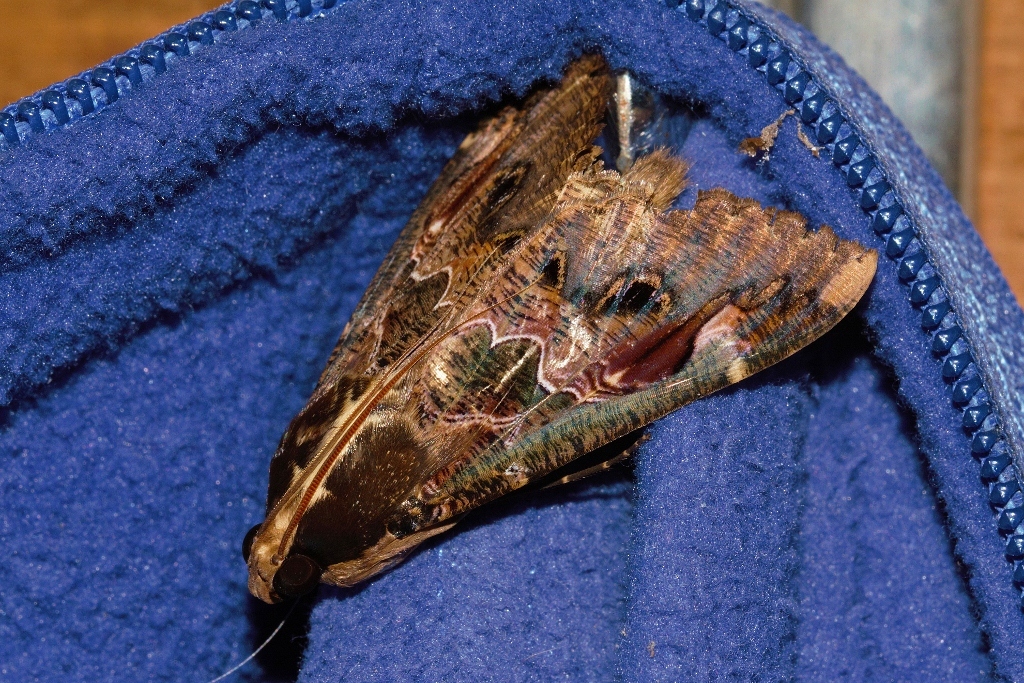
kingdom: Animalia
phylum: Arthropoda
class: Insecta
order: Lepidoptera
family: Erebidae
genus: Sphingomorpha
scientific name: Sphingomorpha chlorea
